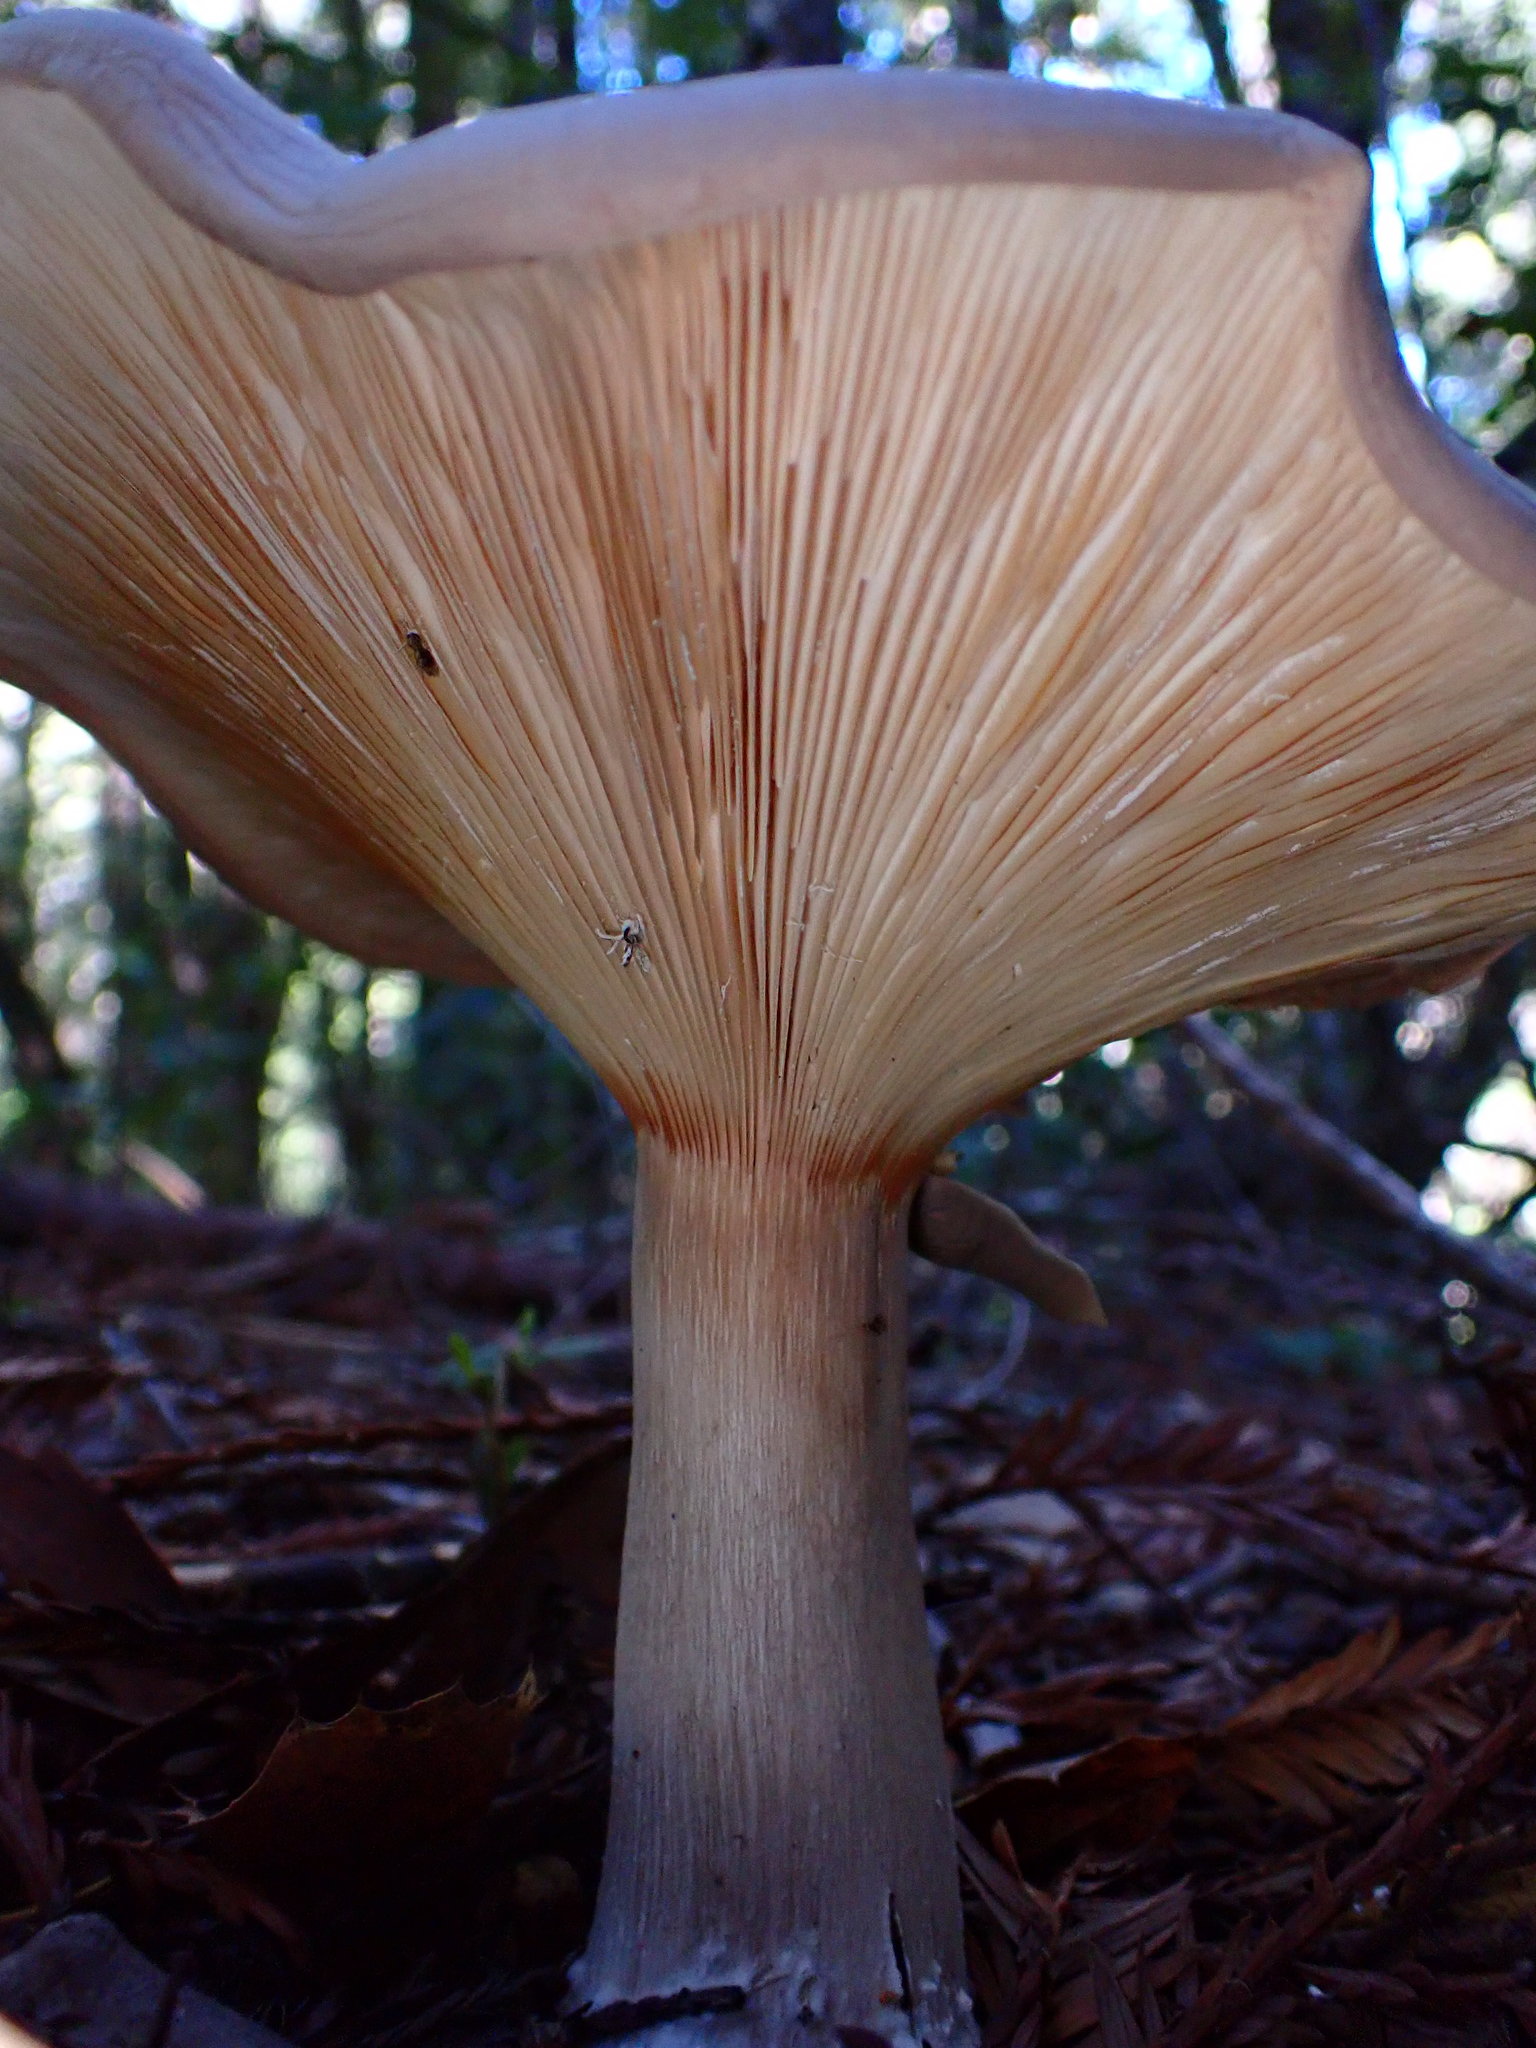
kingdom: Fungi
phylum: Basidiomycota
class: Agaricomycetes
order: Agaricales
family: Tricholomataceae
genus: Clitocybe
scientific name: Clitocybe nebularis
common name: Clouded agaric
